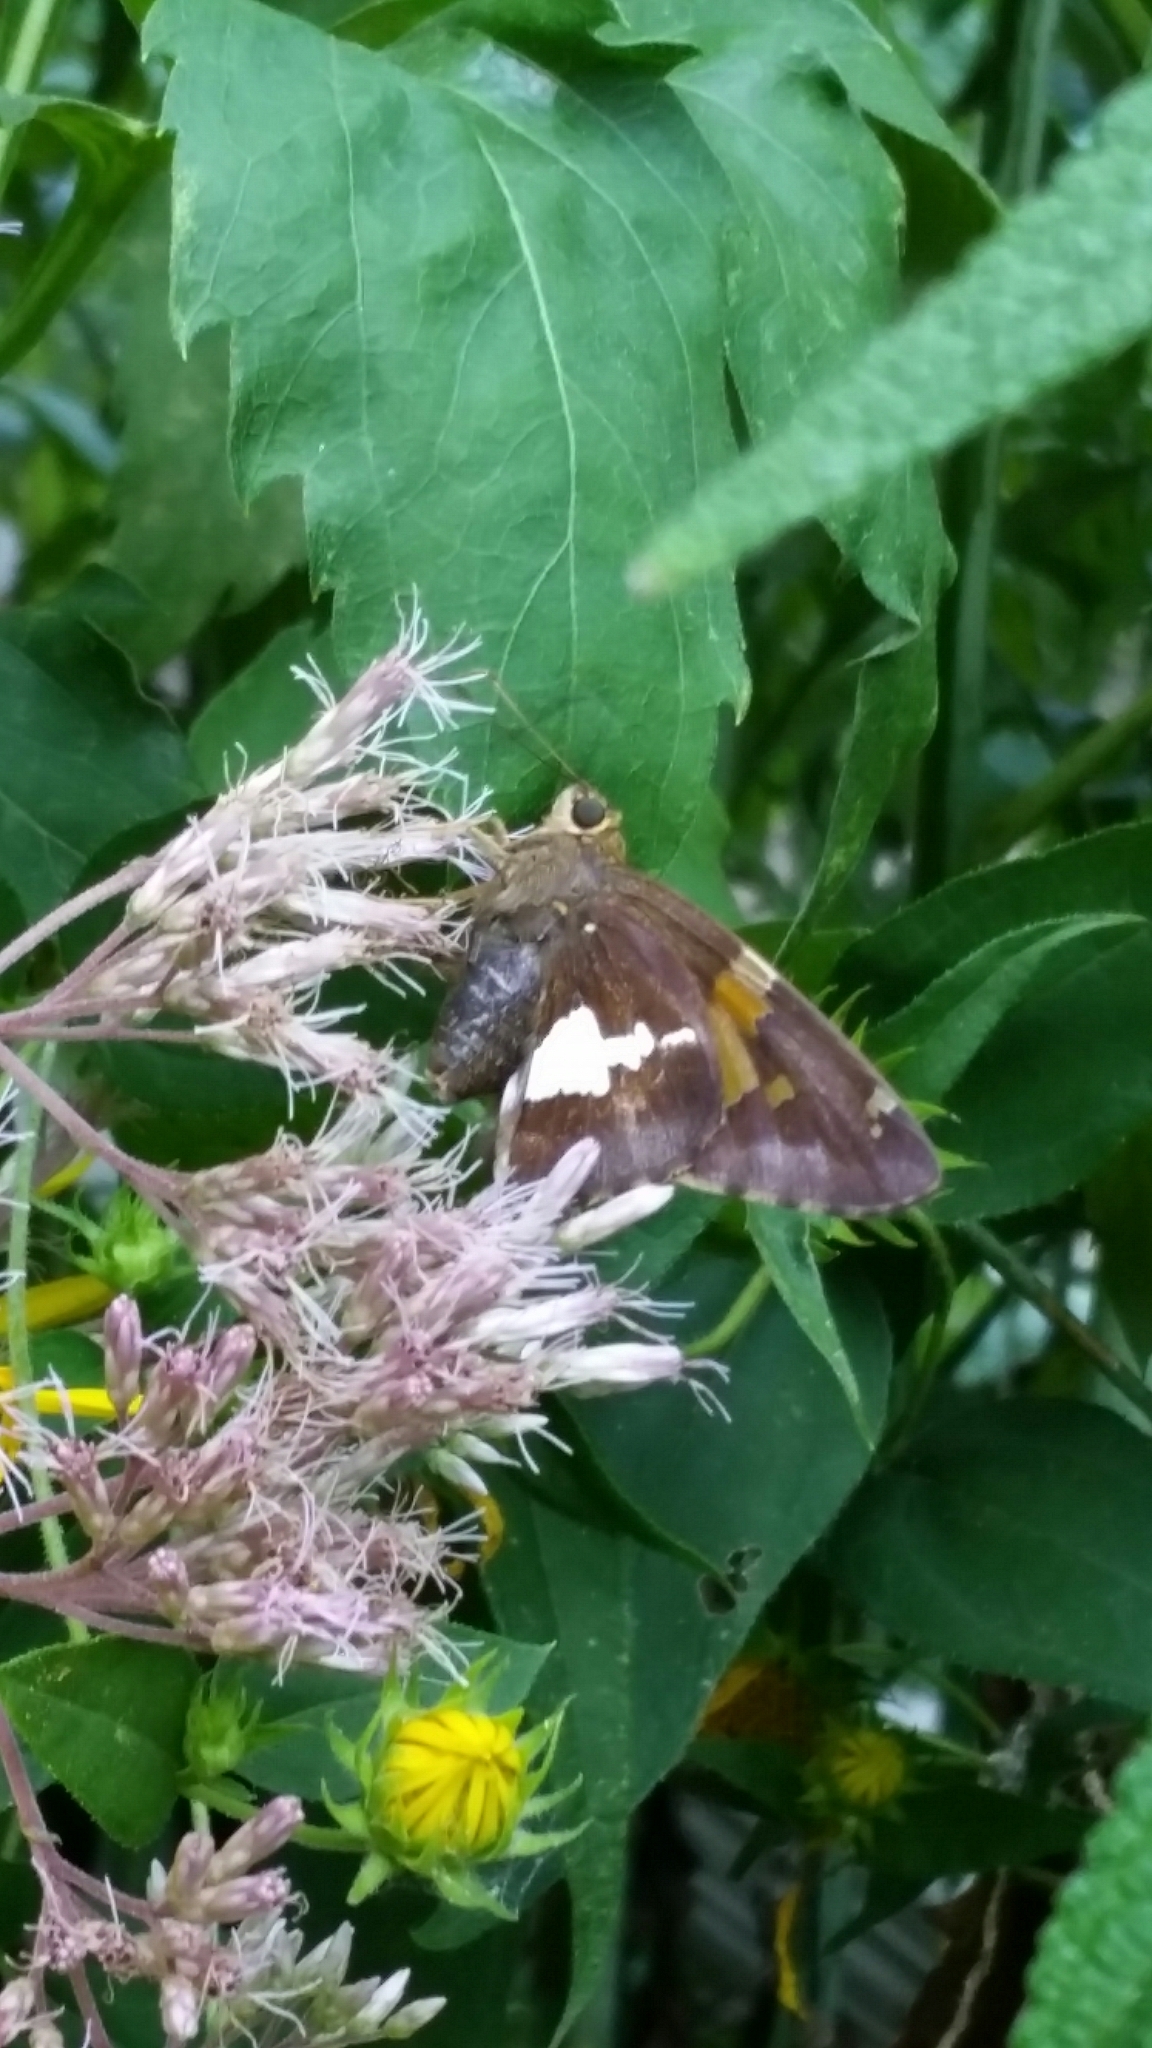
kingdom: Animalia
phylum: Arthropoda
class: Insecta
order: Lepidoptera
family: Hesperiidae
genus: Epargyreus
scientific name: Epargyreus clarus
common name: Silver-spotted skipper
